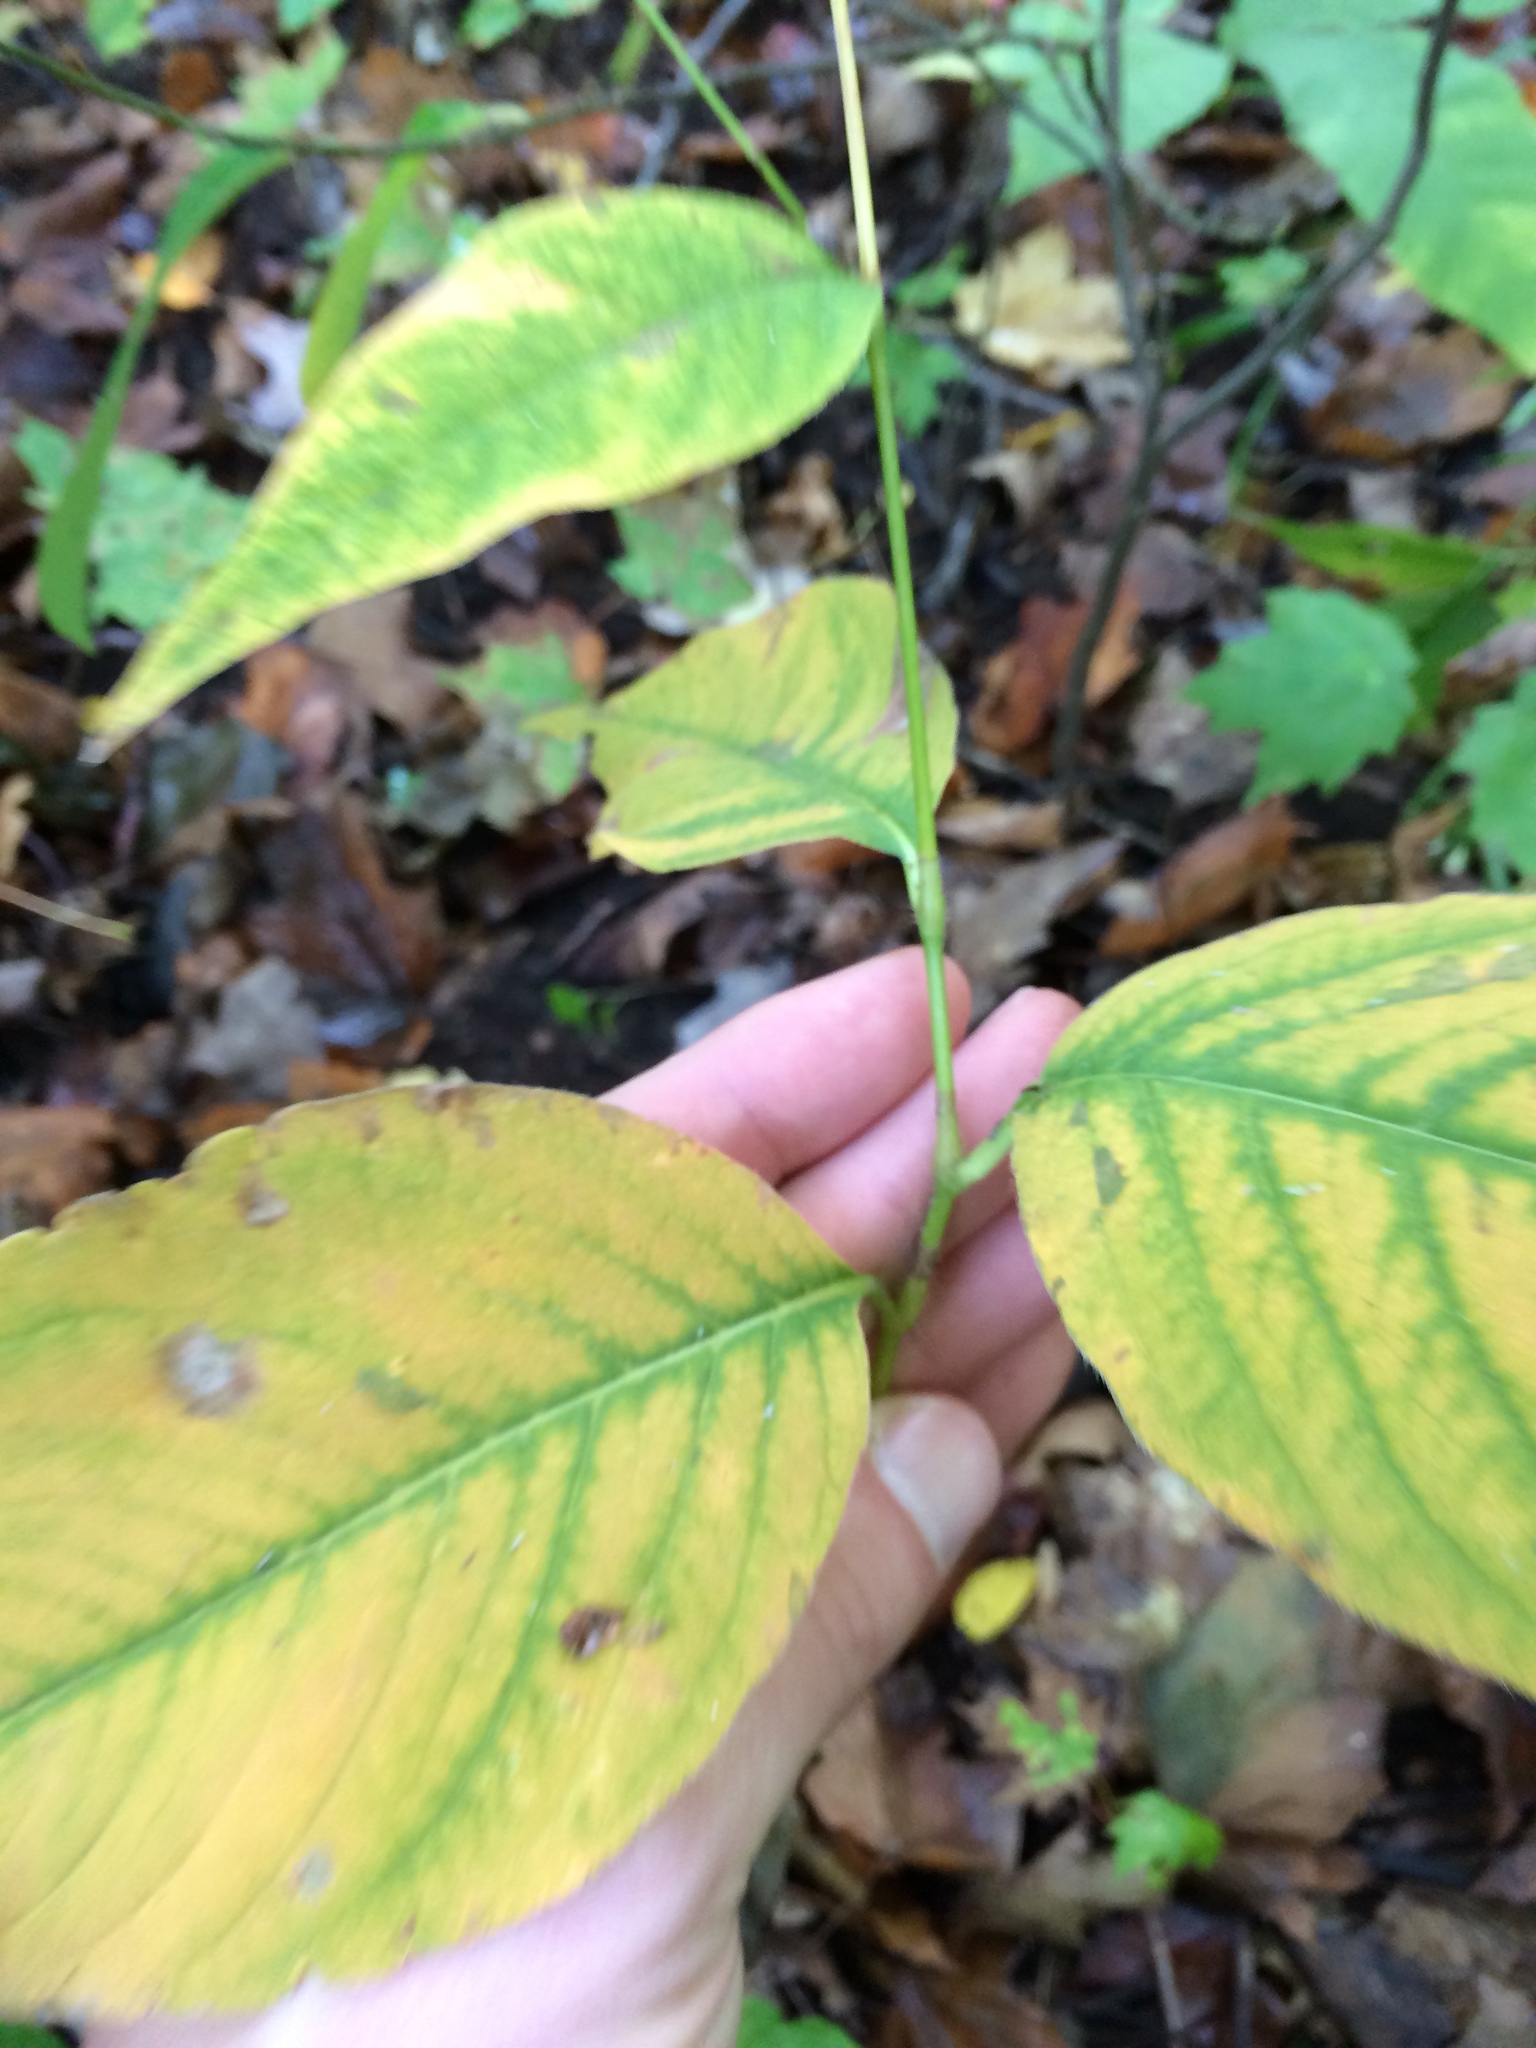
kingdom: Plantae
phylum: Tracheophyta
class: Magnoliopsida
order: Caryophyllales
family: Polygonaceae
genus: Persicaria
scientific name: Persicaria virginiana
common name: Jumpseed
